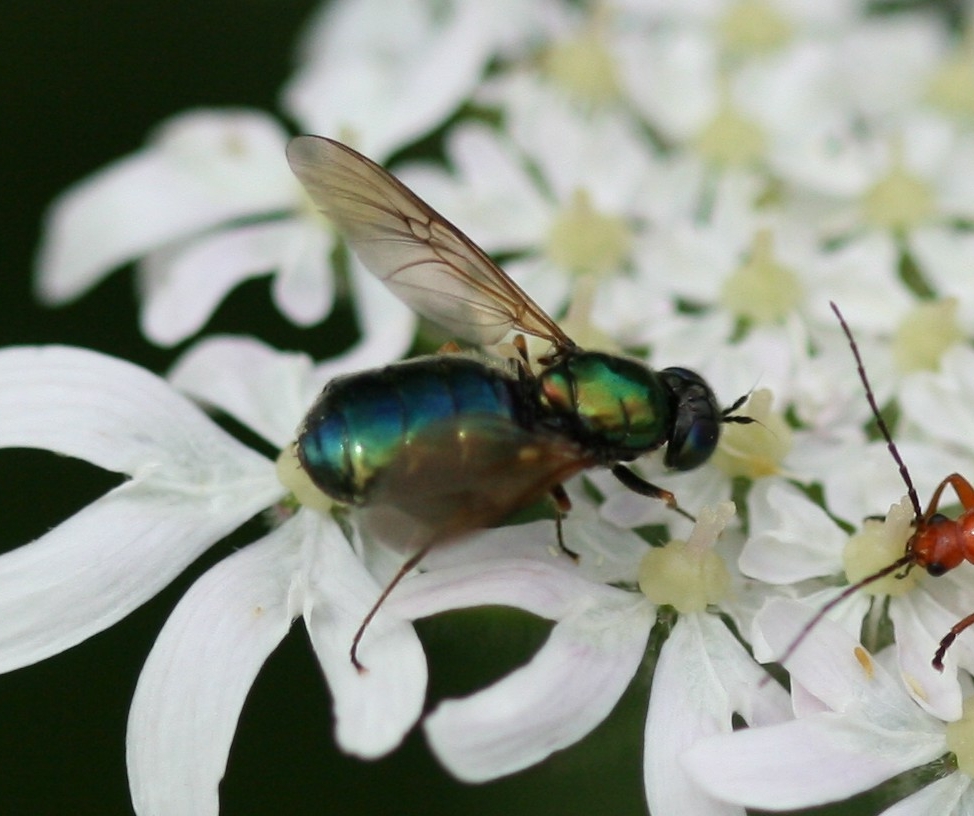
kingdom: Animalia
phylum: Arthropoda
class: Insecta
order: Diptera
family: Stratiomyidae
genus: Chloromyia
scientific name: Chloromyia formosa
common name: Soldier fly
